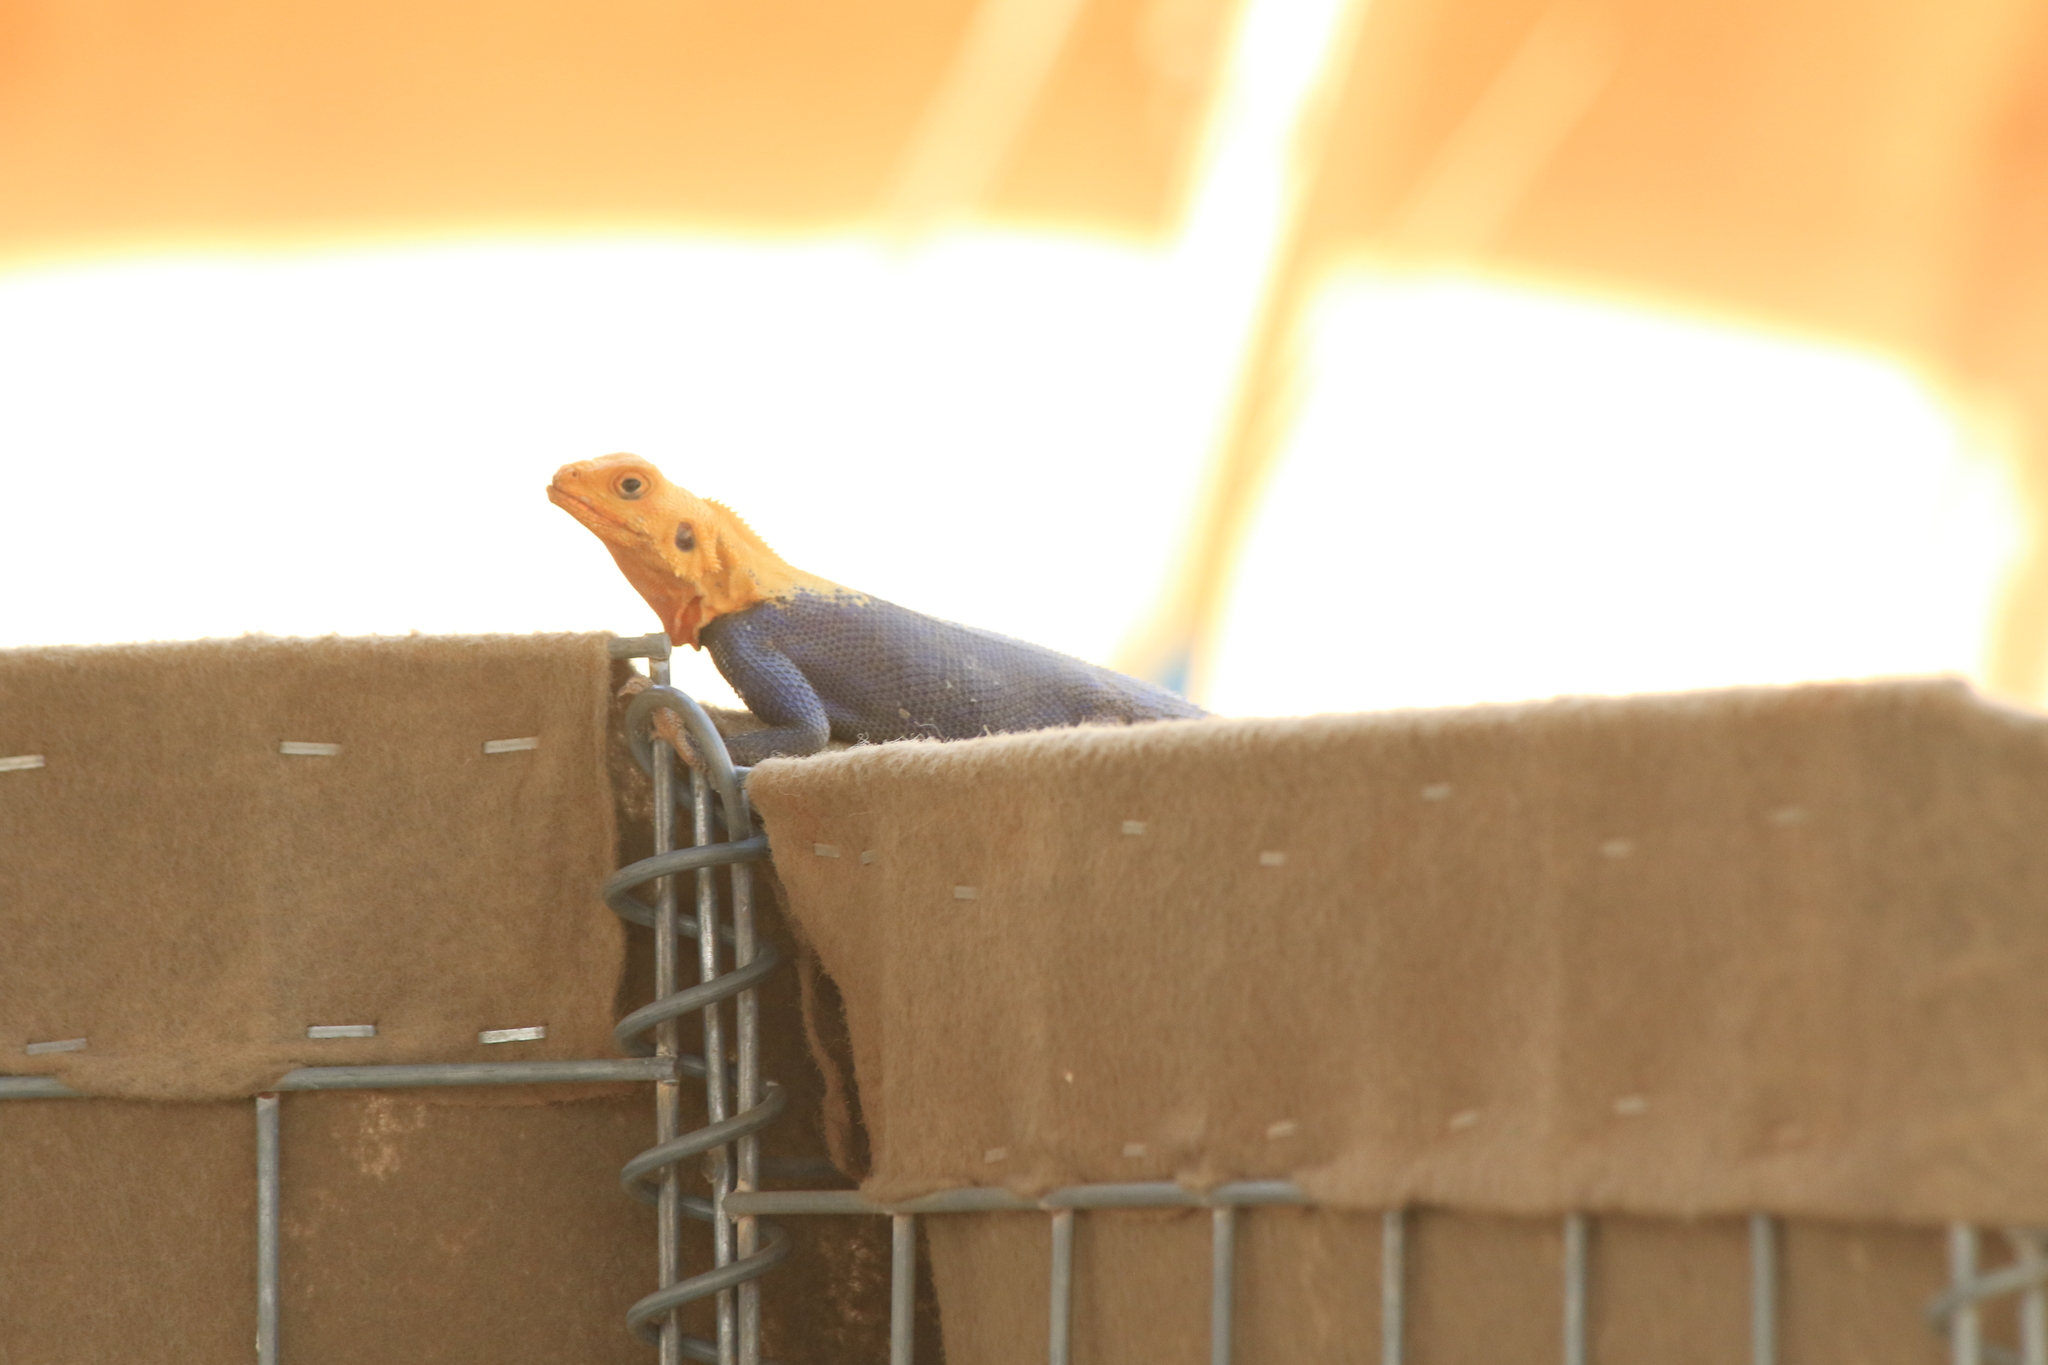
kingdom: Animalia
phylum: Chordata
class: Squamata
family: Agamidae
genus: Agama
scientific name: Agama agama
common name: Common agama
